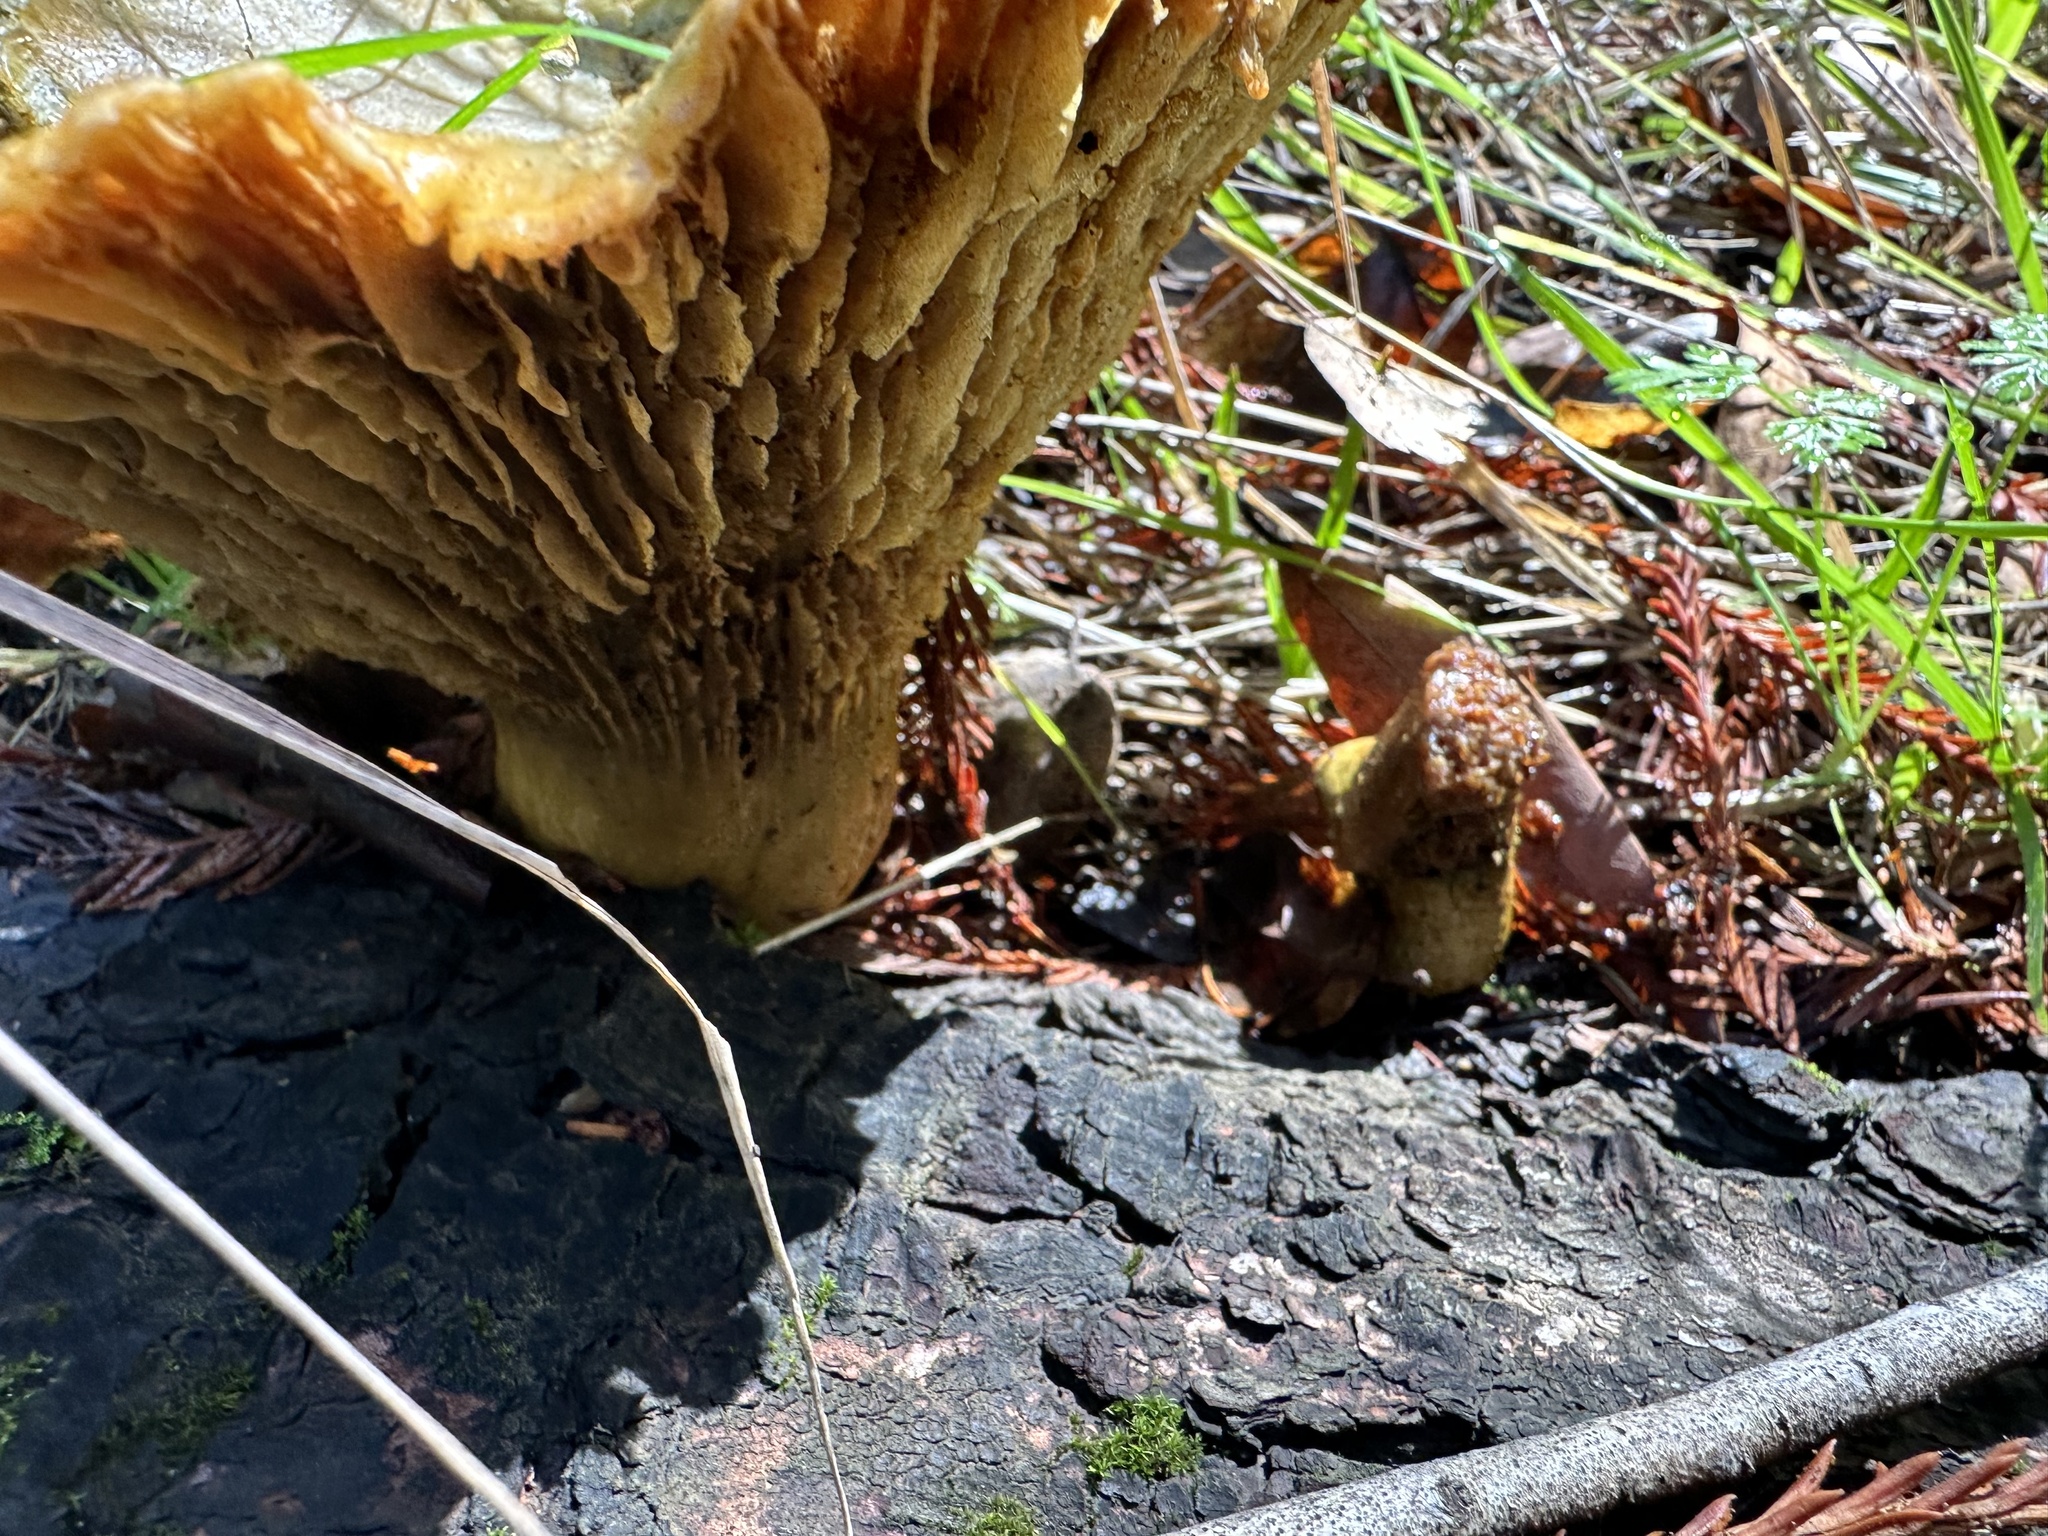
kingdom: Fungi
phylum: Basidiomycota
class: Agaricomycetes
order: Agaricales
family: Omphalotaceae
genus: Omphalotus
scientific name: Omphalotus olivascens
